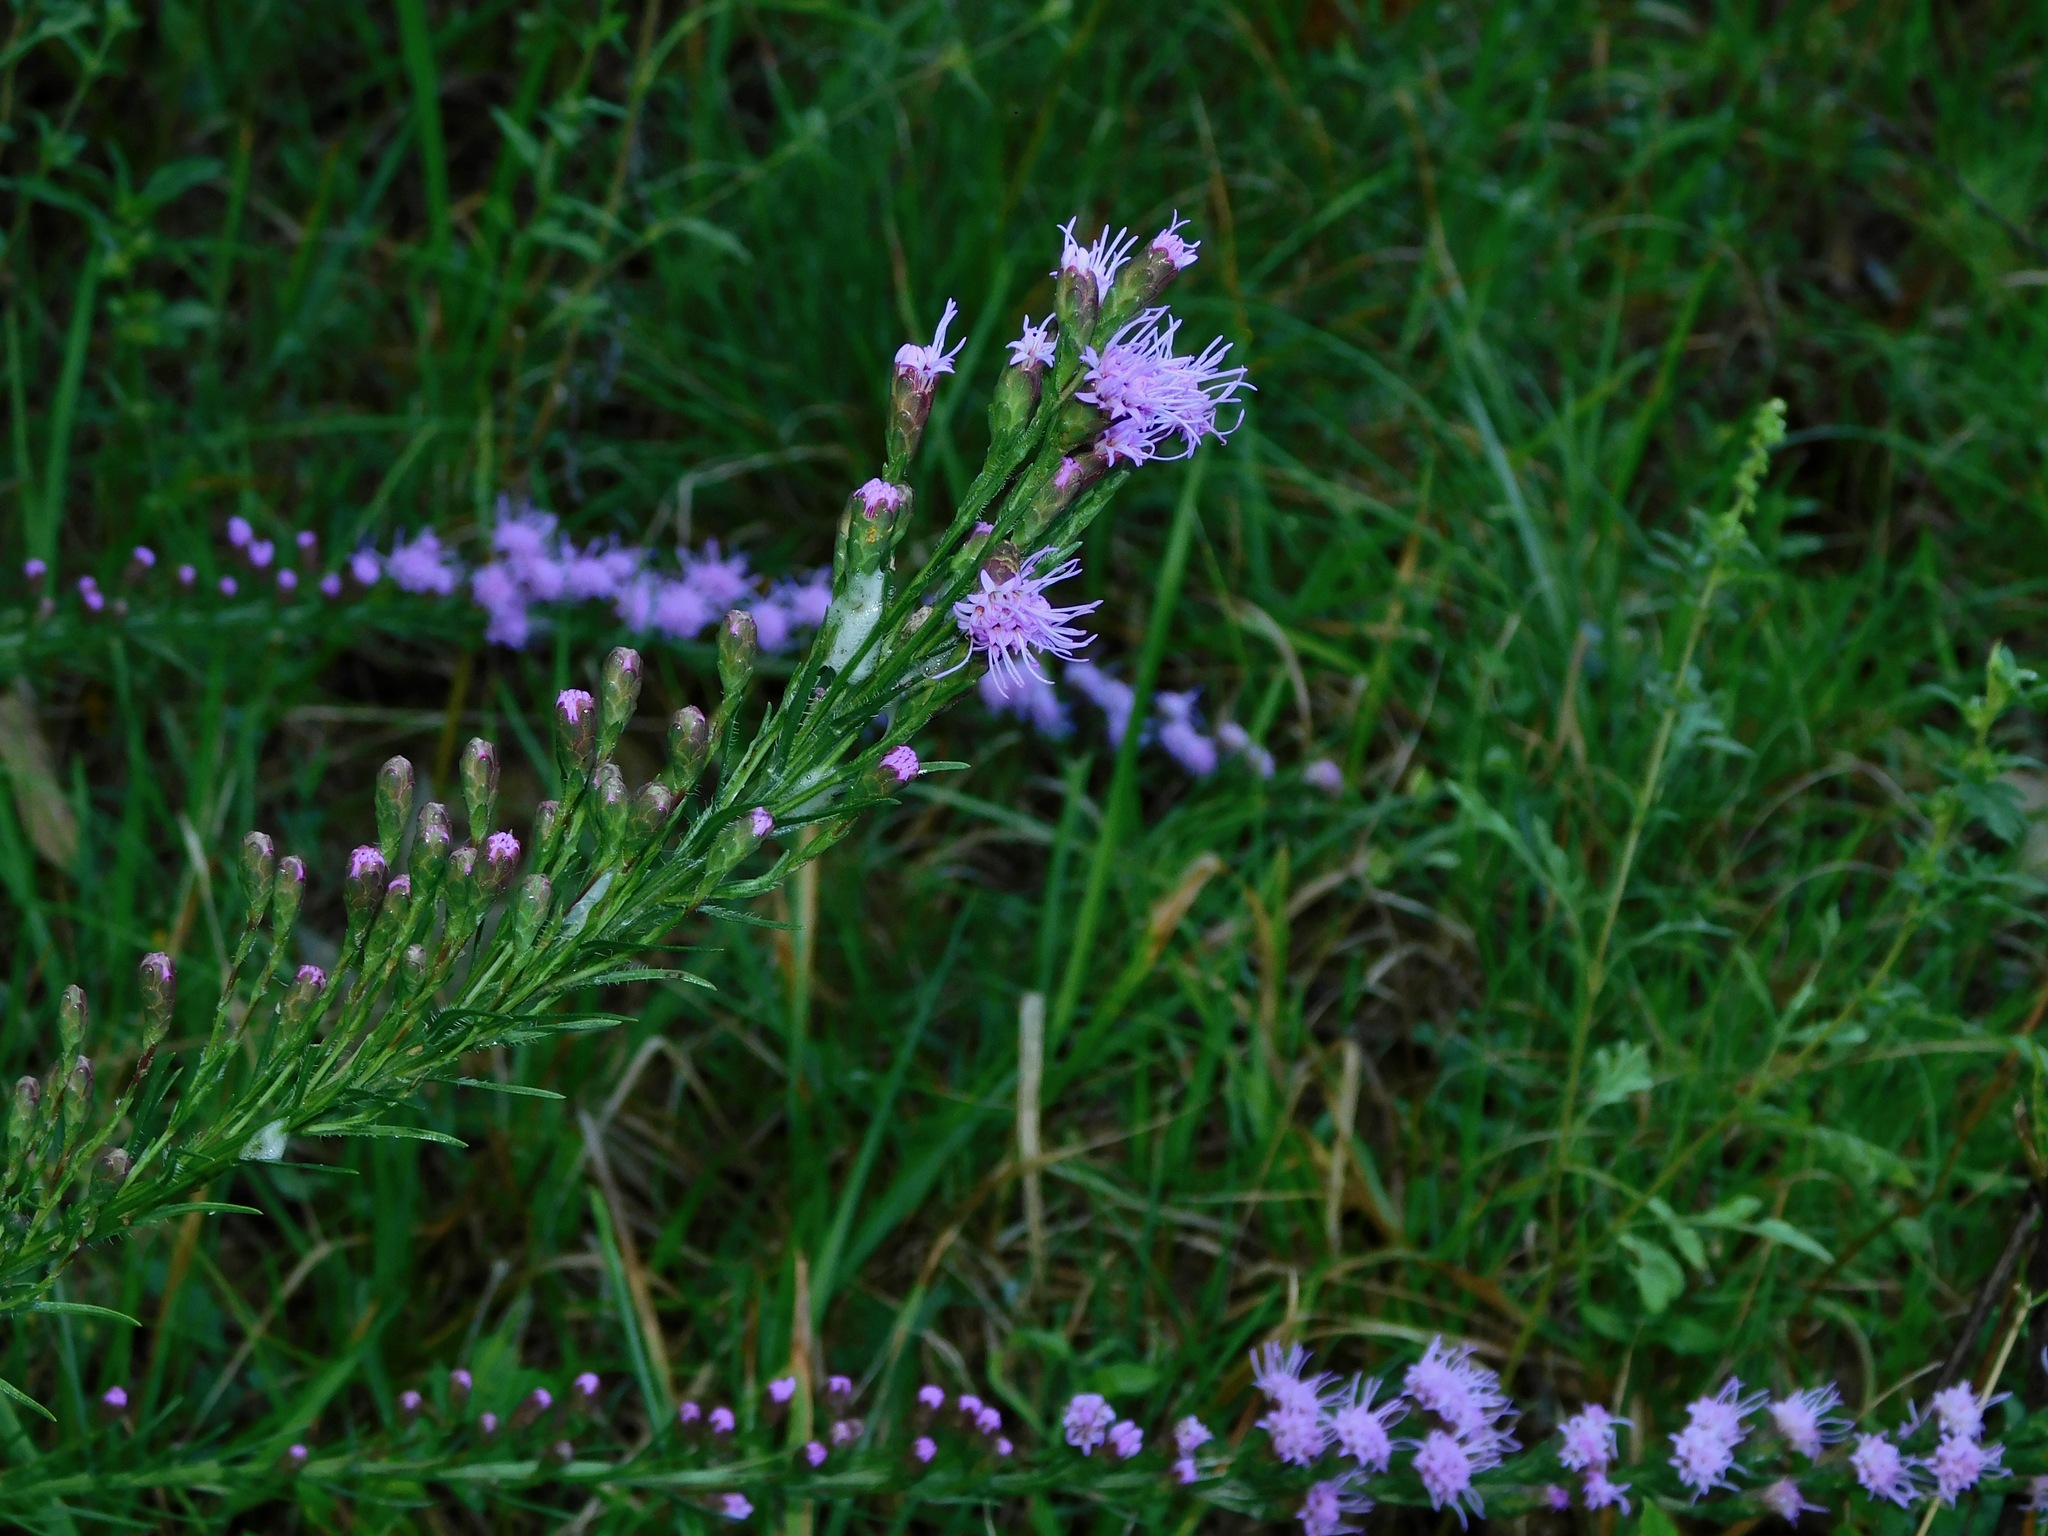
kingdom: Plantae
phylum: Tracheophyta
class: Magnoliopsida
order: Asterales
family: Asteraceae
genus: Liatris
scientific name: Liatris pilosa
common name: Grass-leaf gayfeather
